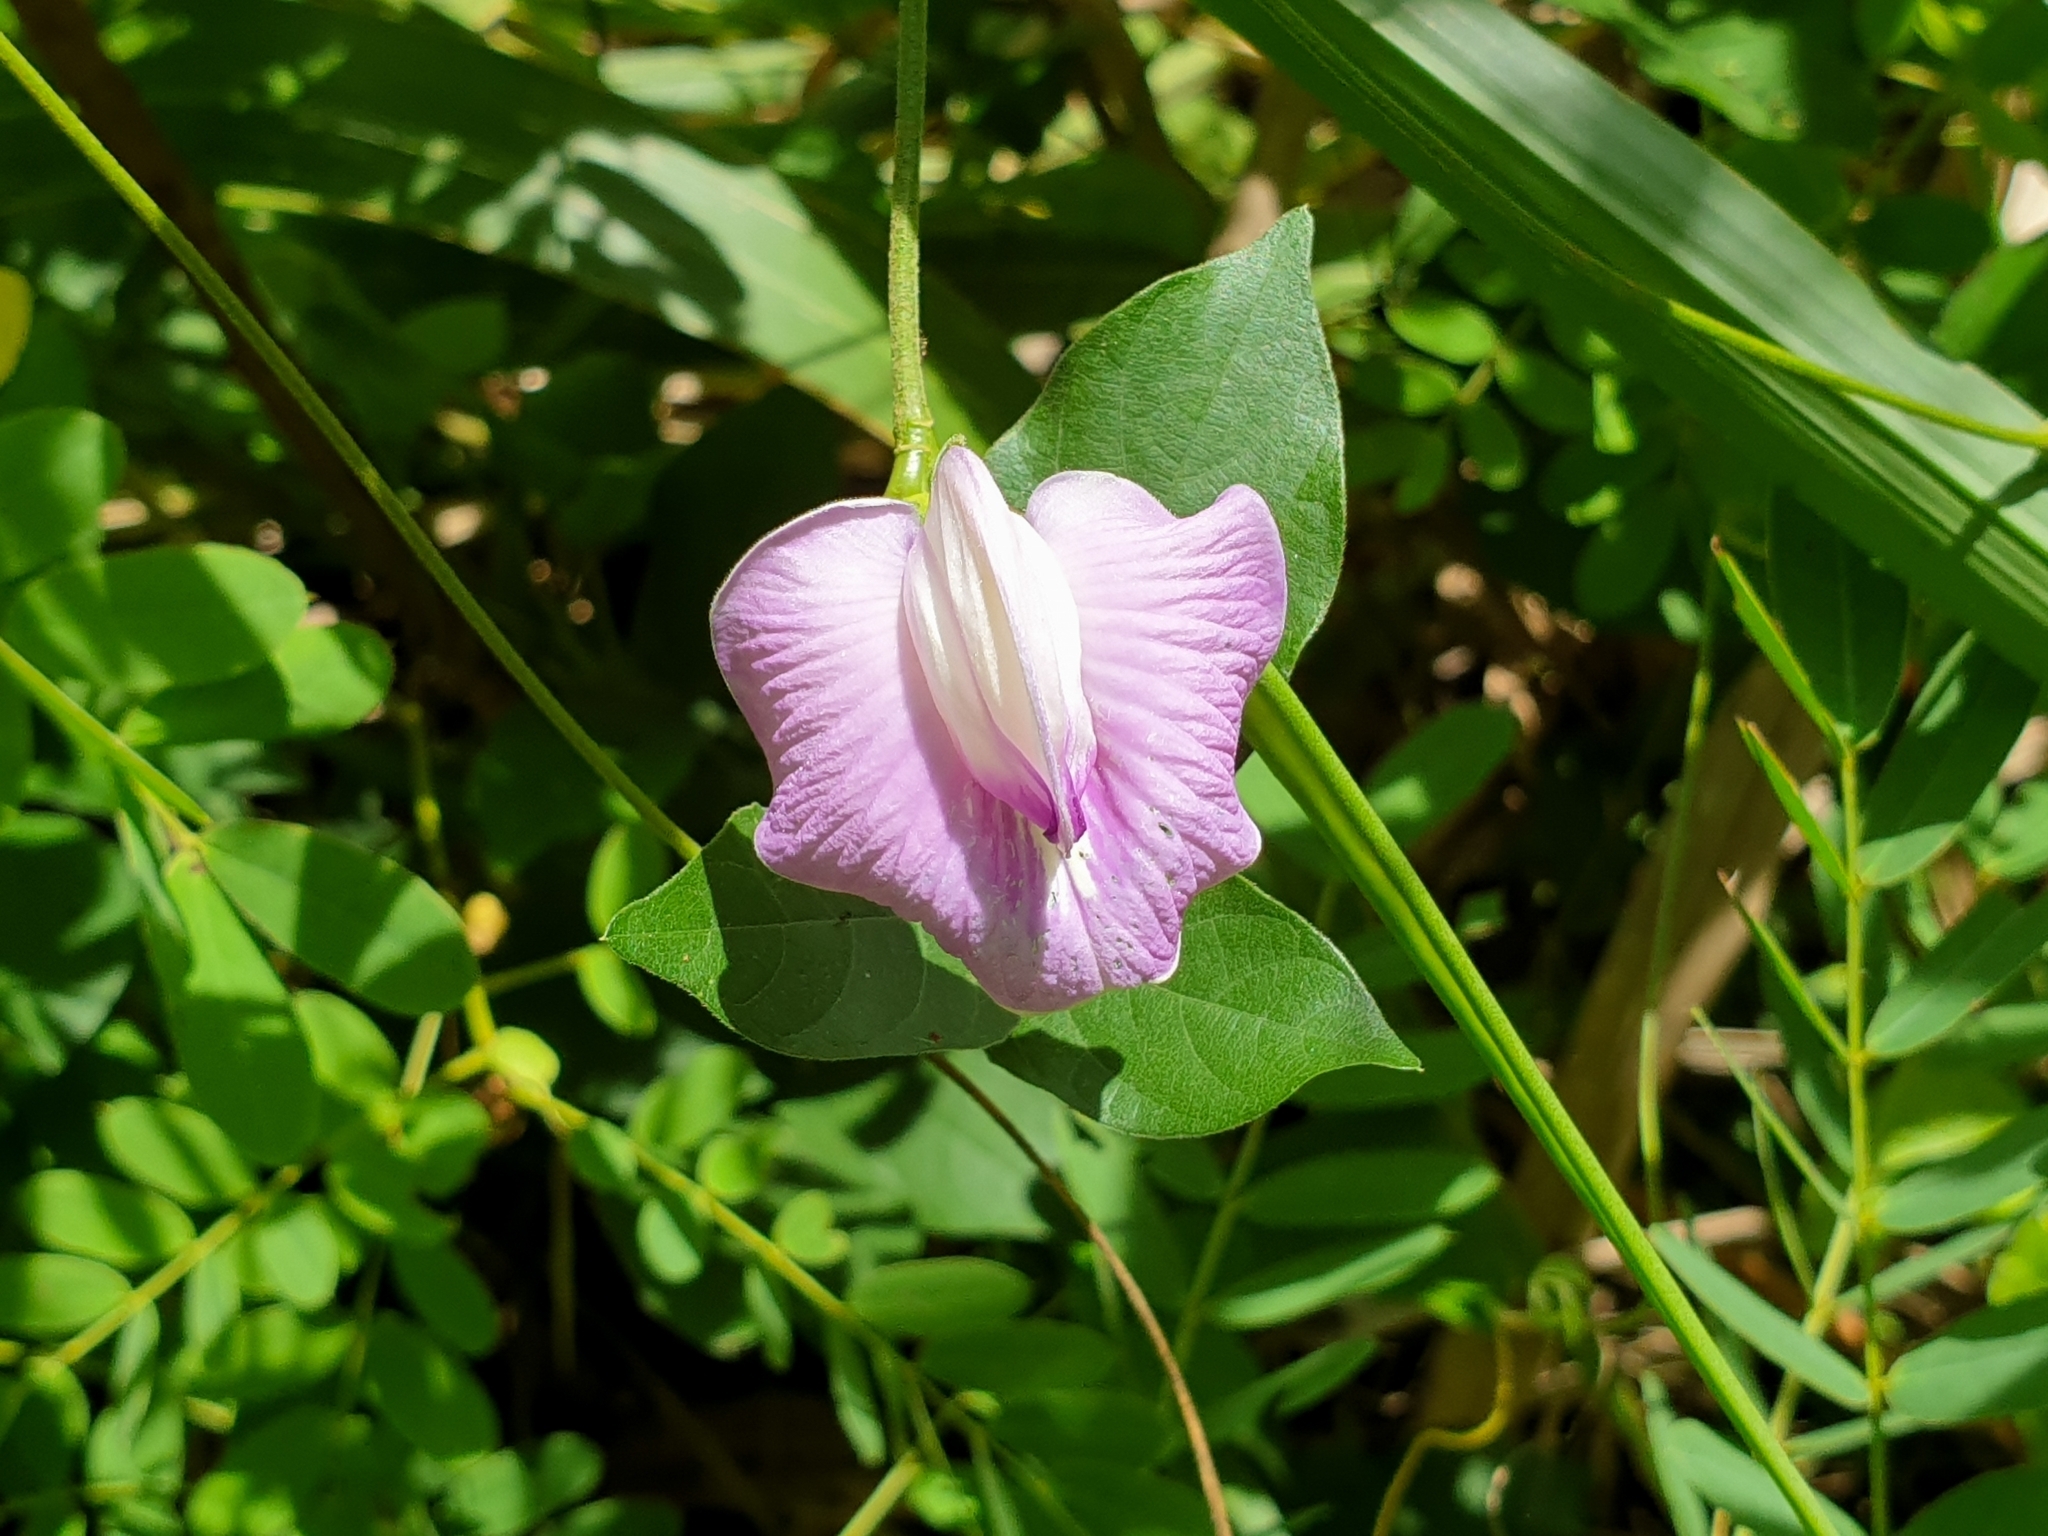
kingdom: Plantae
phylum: Tracheophyta
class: Magnoliopsida
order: Fabales
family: Fabaceae
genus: Centrosema
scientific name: Centrosema pubescens
